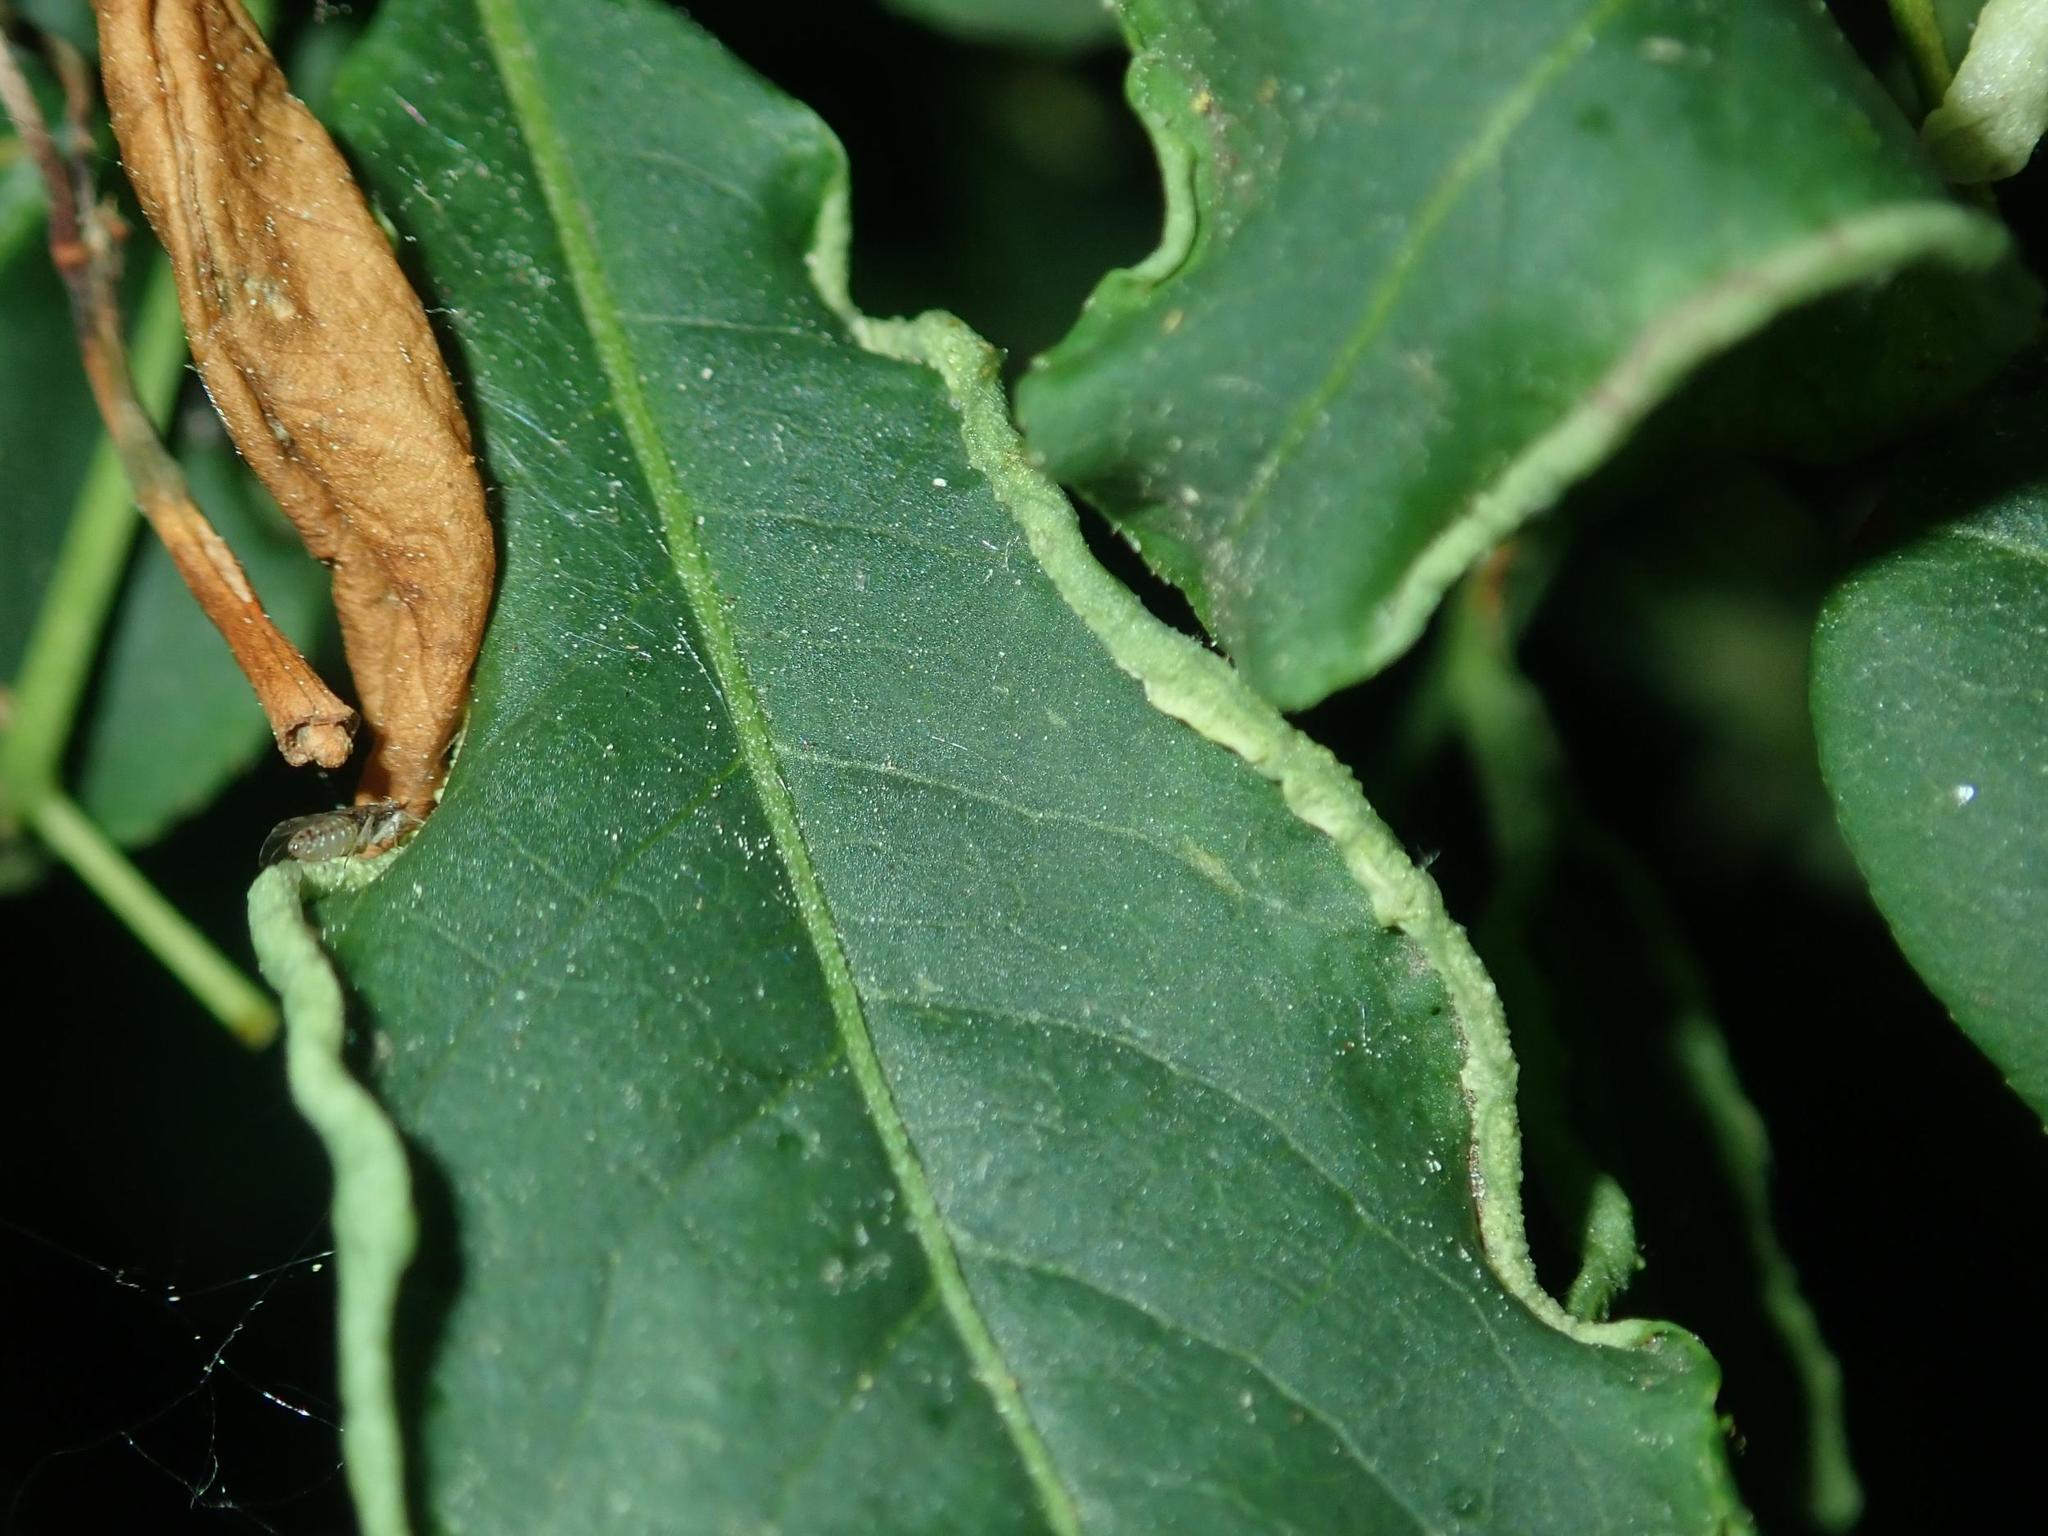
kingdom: Animalia
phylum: Arthropoda
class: Arachnida
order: Trombidiformes
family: Eriophyidae
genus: Stenacis
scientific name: Stenacis evonymi
